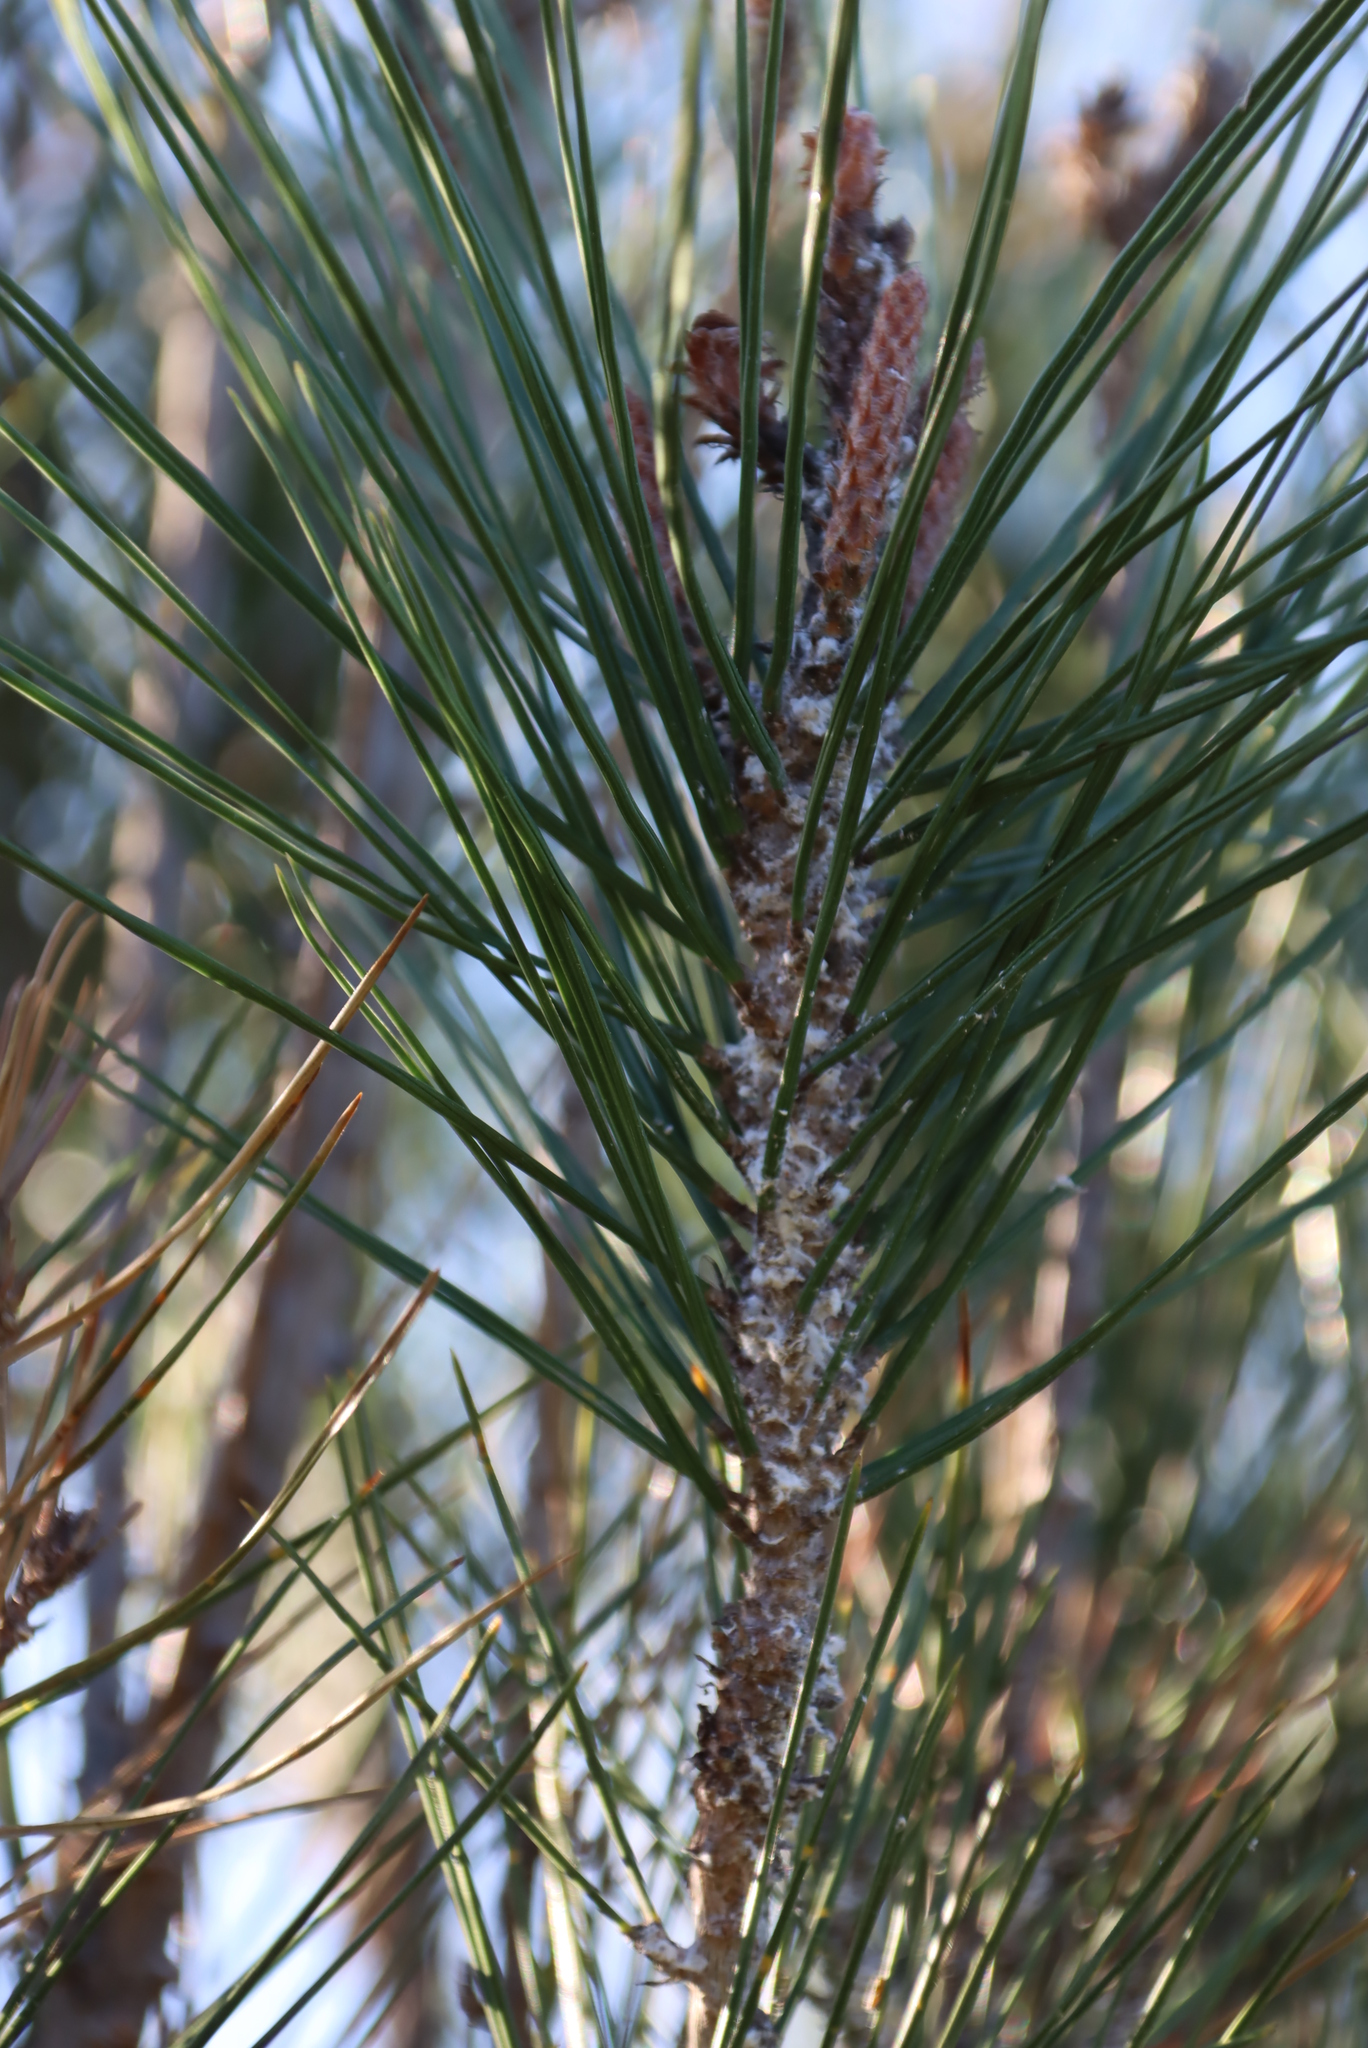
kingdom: Plantae
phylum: Tracheophyta
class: Pinopsida
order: Pinales
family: Pinaceae
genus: Pinus
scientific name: Pinus radiata
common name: Monterey pine
